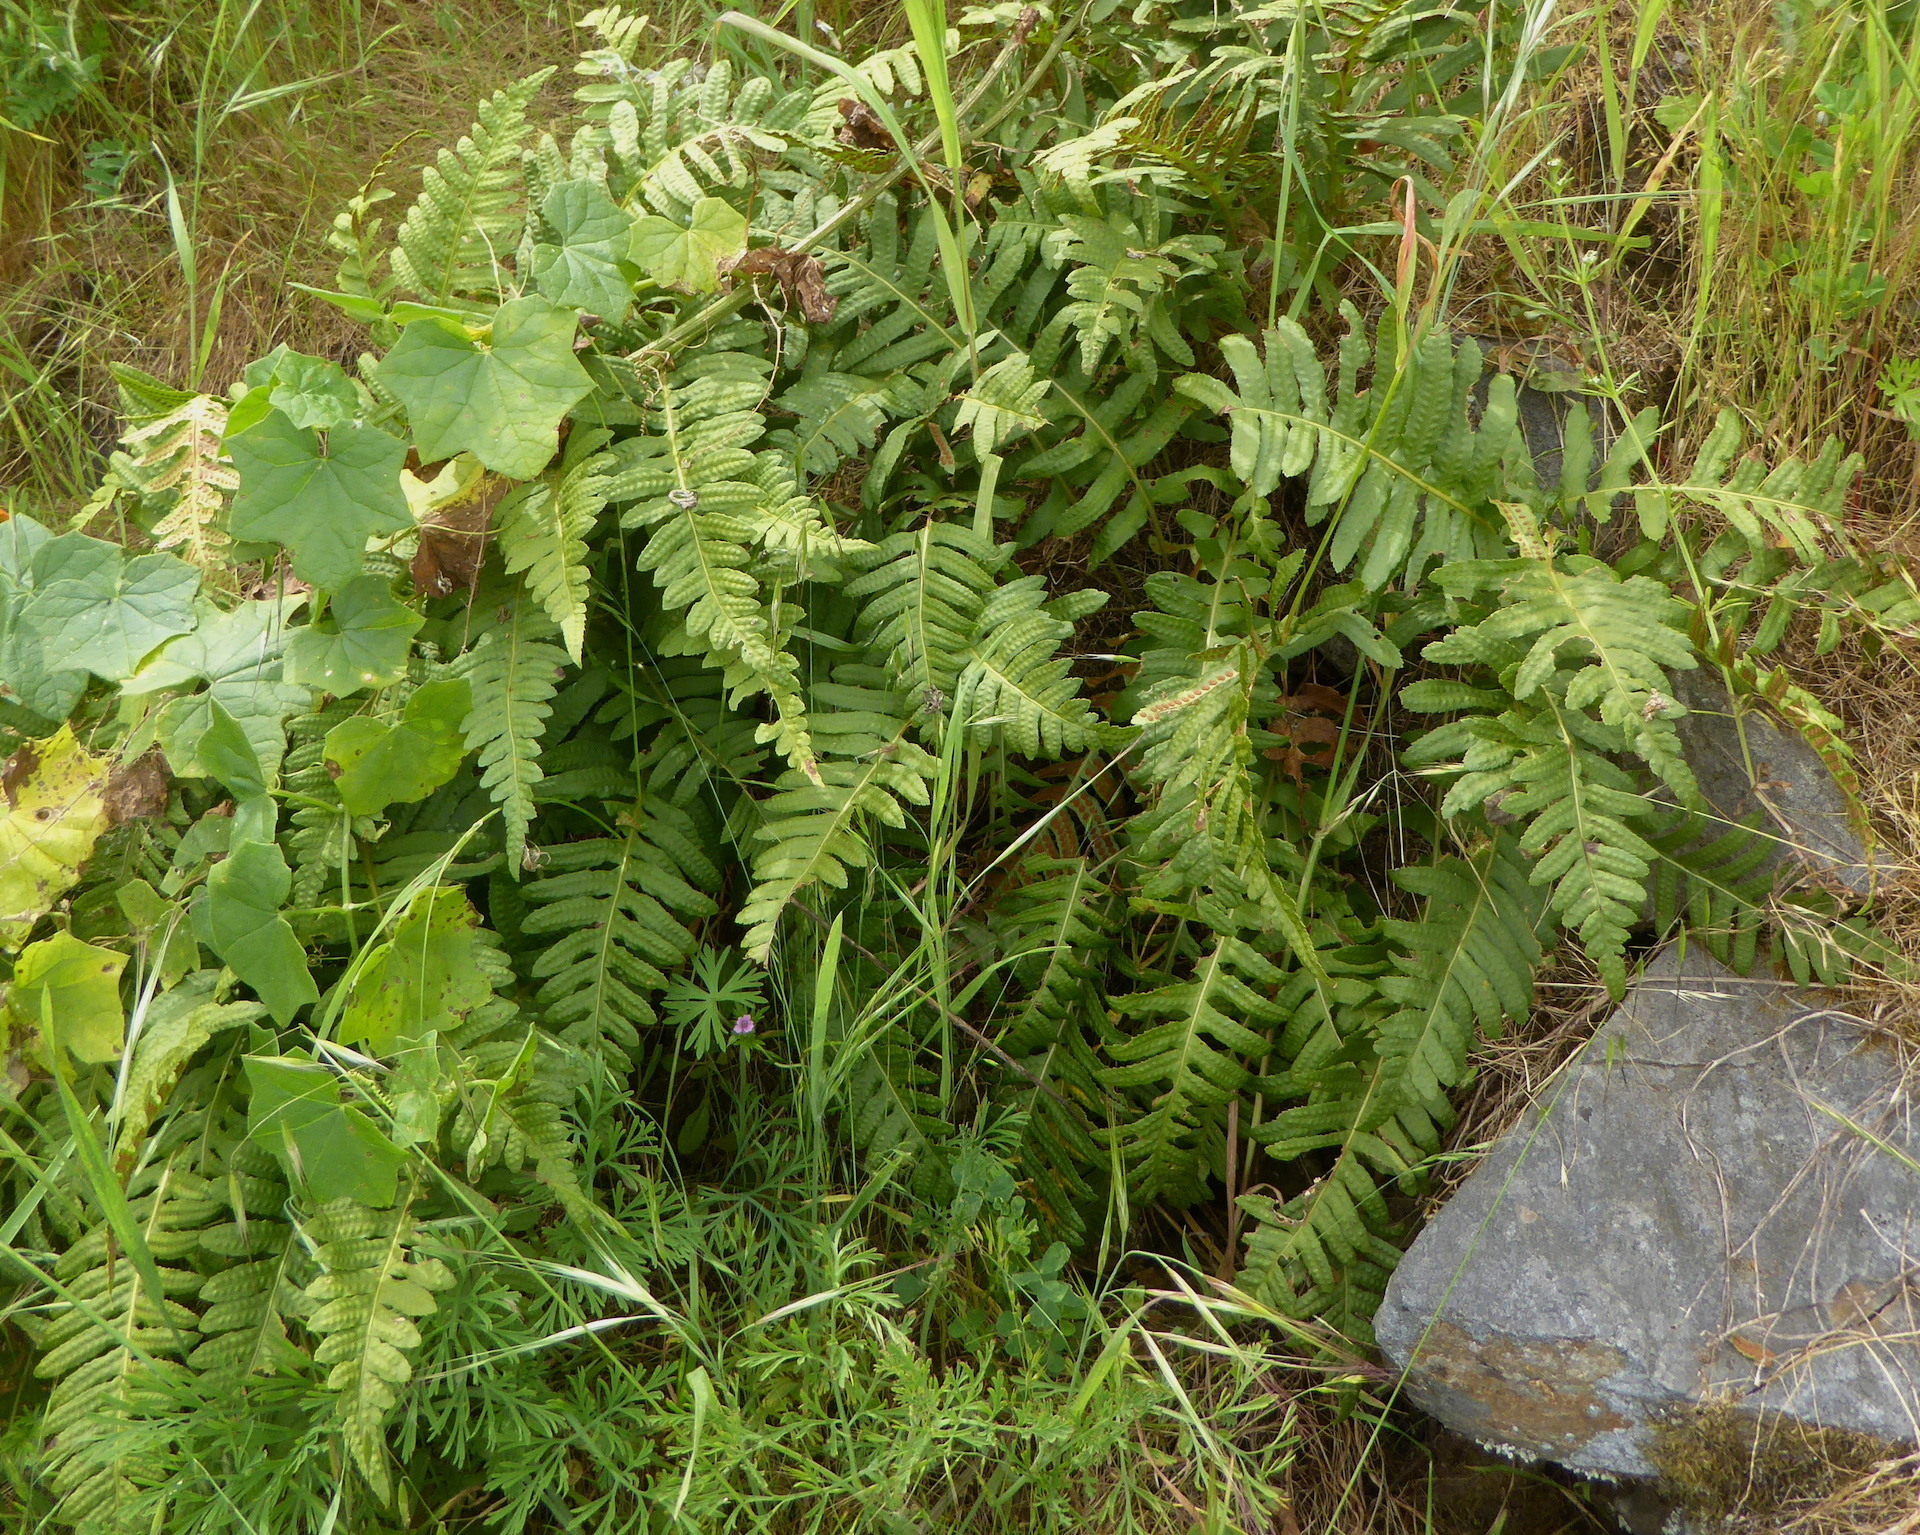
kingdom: Plantae
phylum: Tracheophyta
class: Polypodiopsida
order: Polypodiales
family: Polypodiaceae
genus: Polypodium
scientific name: Polypodium californicum
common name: California polypody
